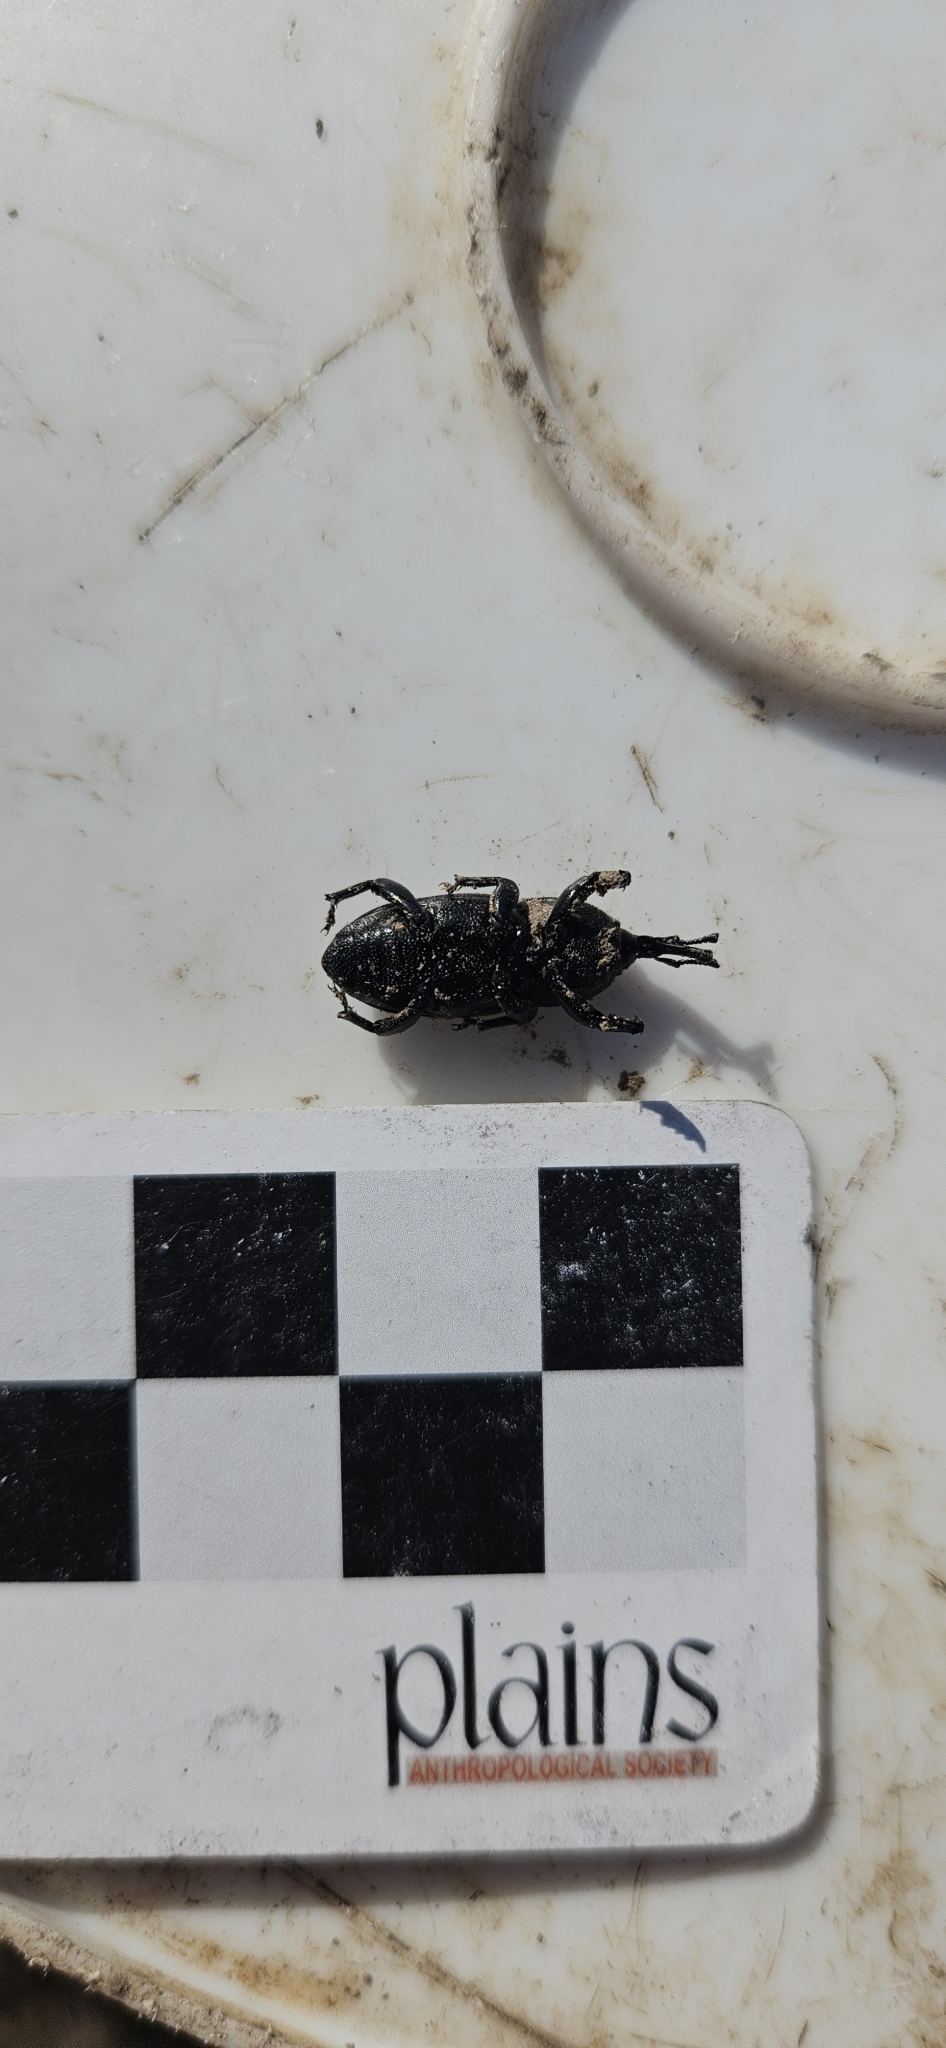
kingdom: Animalia
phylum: Arthropoda
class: Insecta
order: Coleoptera
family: Dryophthoridae
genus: Scyphophorus
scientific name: Scyphophorus acupunctatus
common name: Weevil
